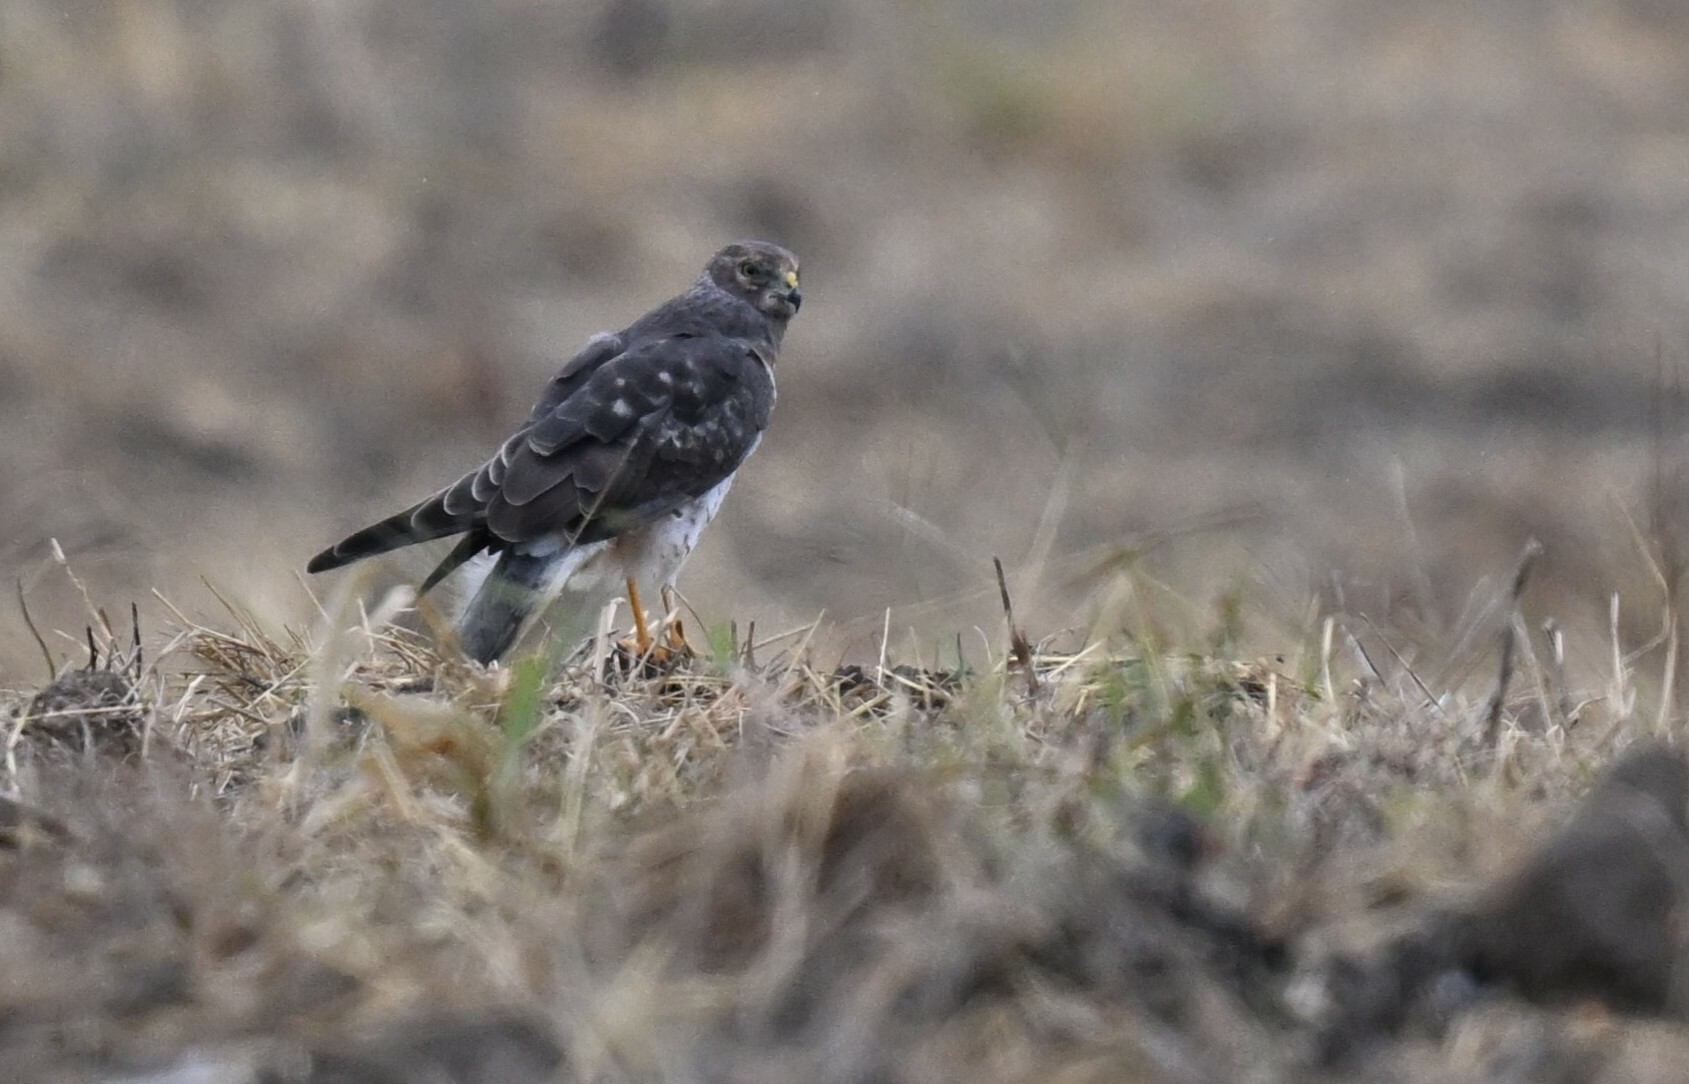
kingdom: Animalia
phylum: Chordata
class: Aves
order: Accipitriformes
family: Accipitridae
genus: Circus
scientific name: Circus cyaneus
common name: Hen harrier
